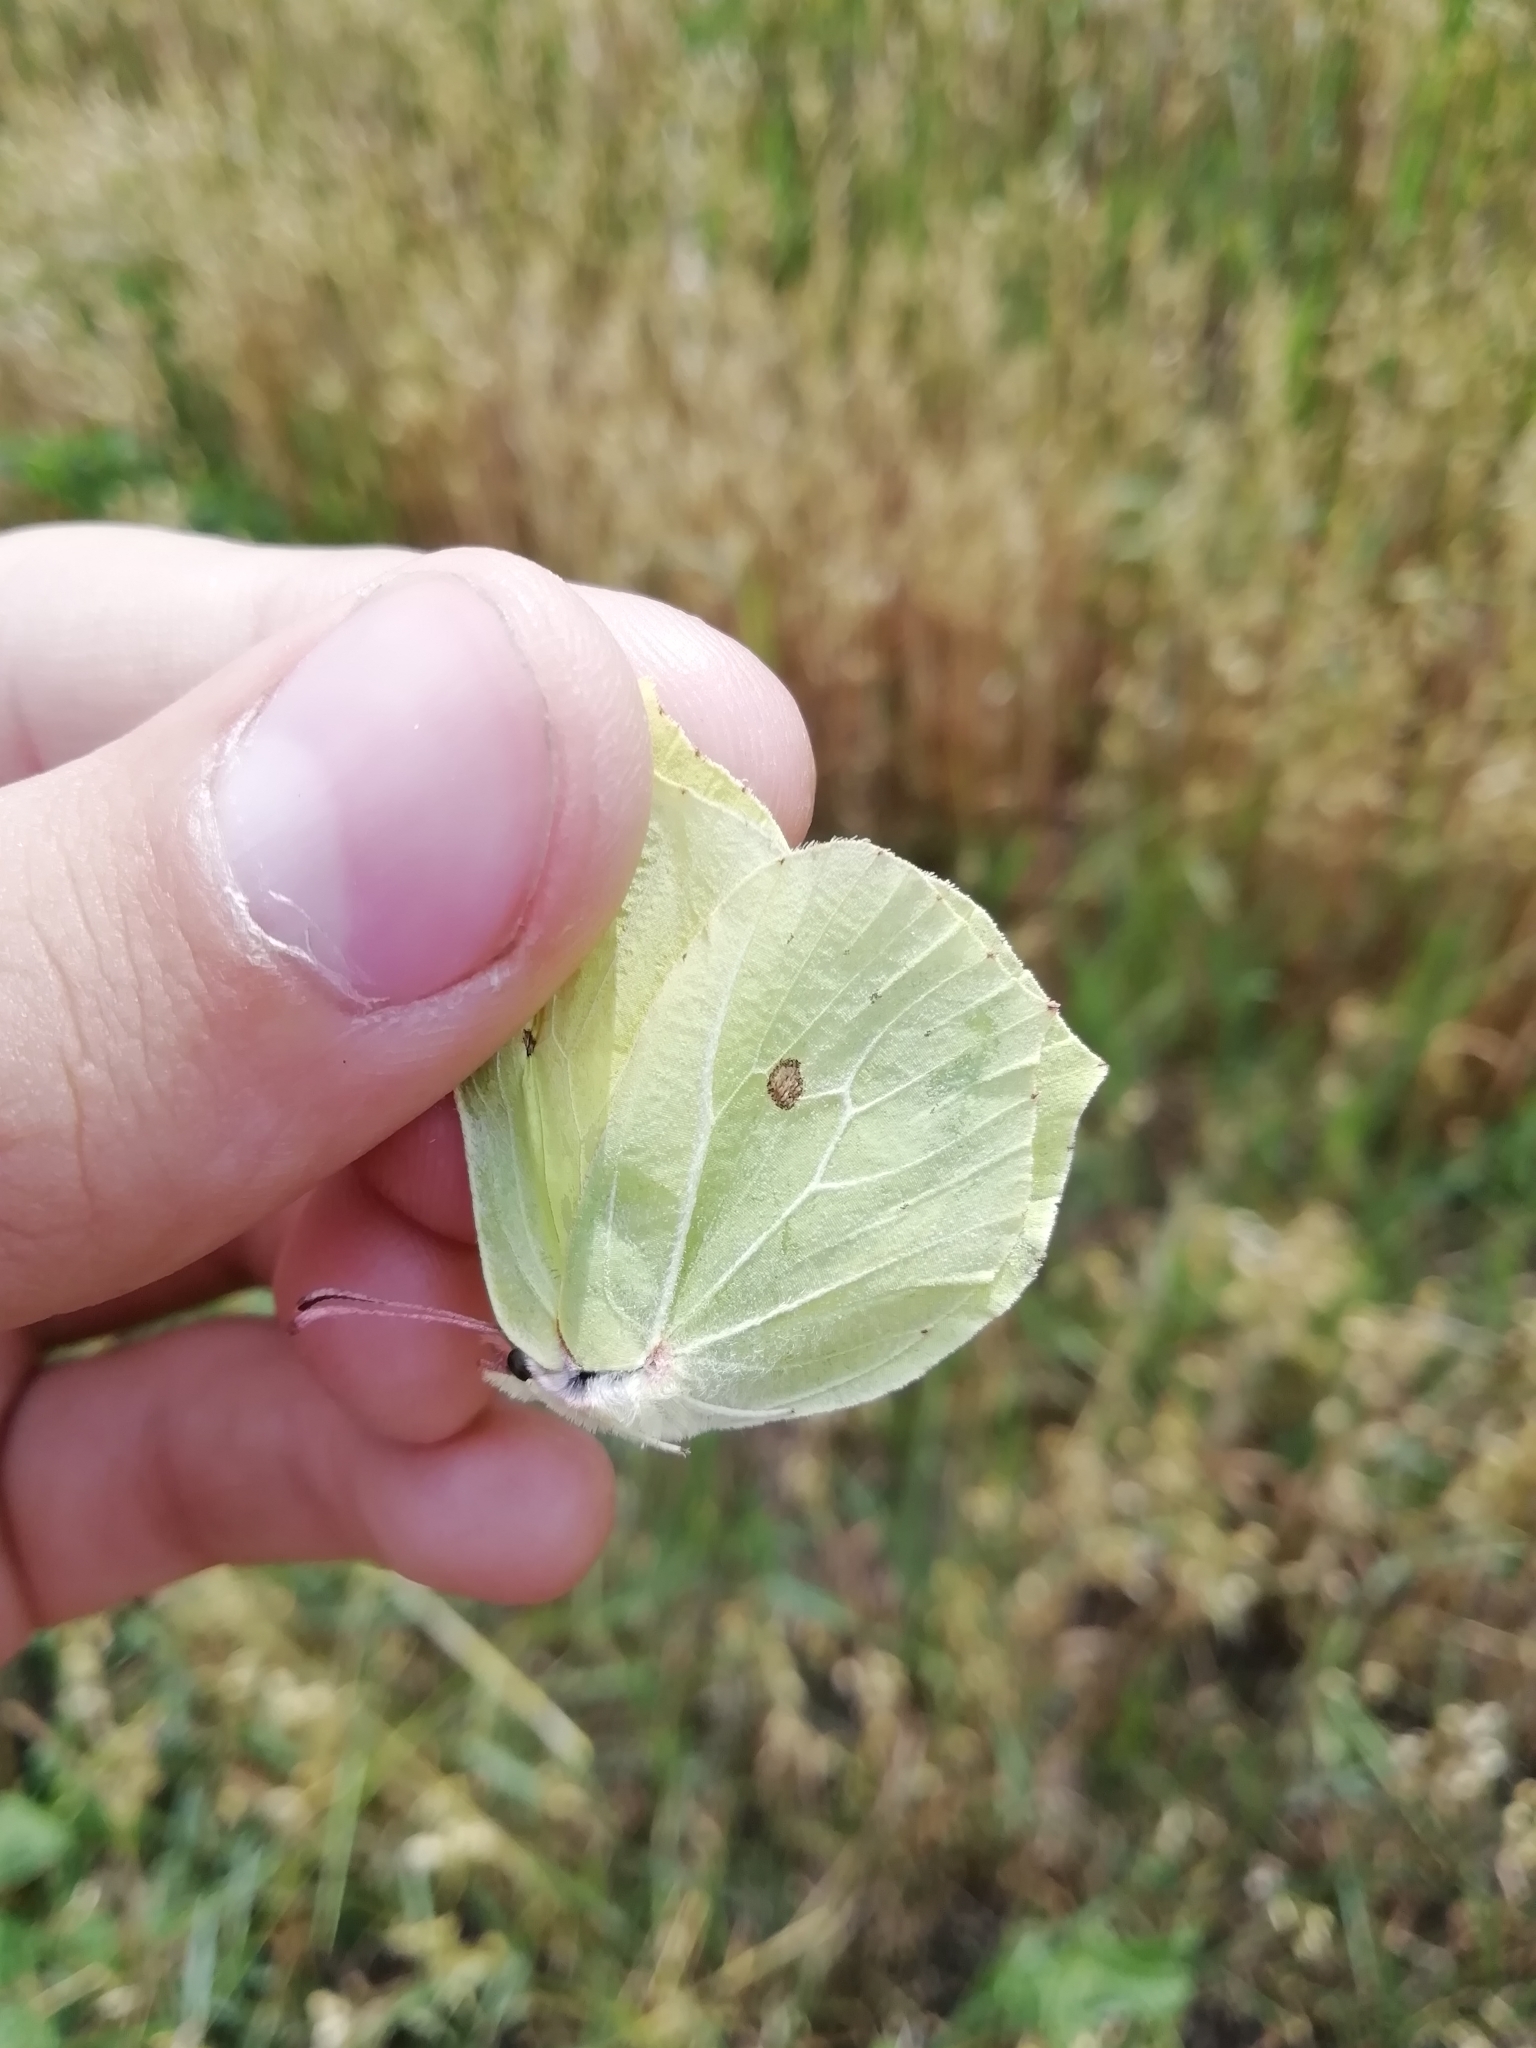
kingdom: Animalia
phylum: Arthropoda
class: Insecta
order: Lepidoptera
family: Pieridae
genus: Gonepteryx
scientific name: Gonepteryx rhamni
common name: Brimstone
